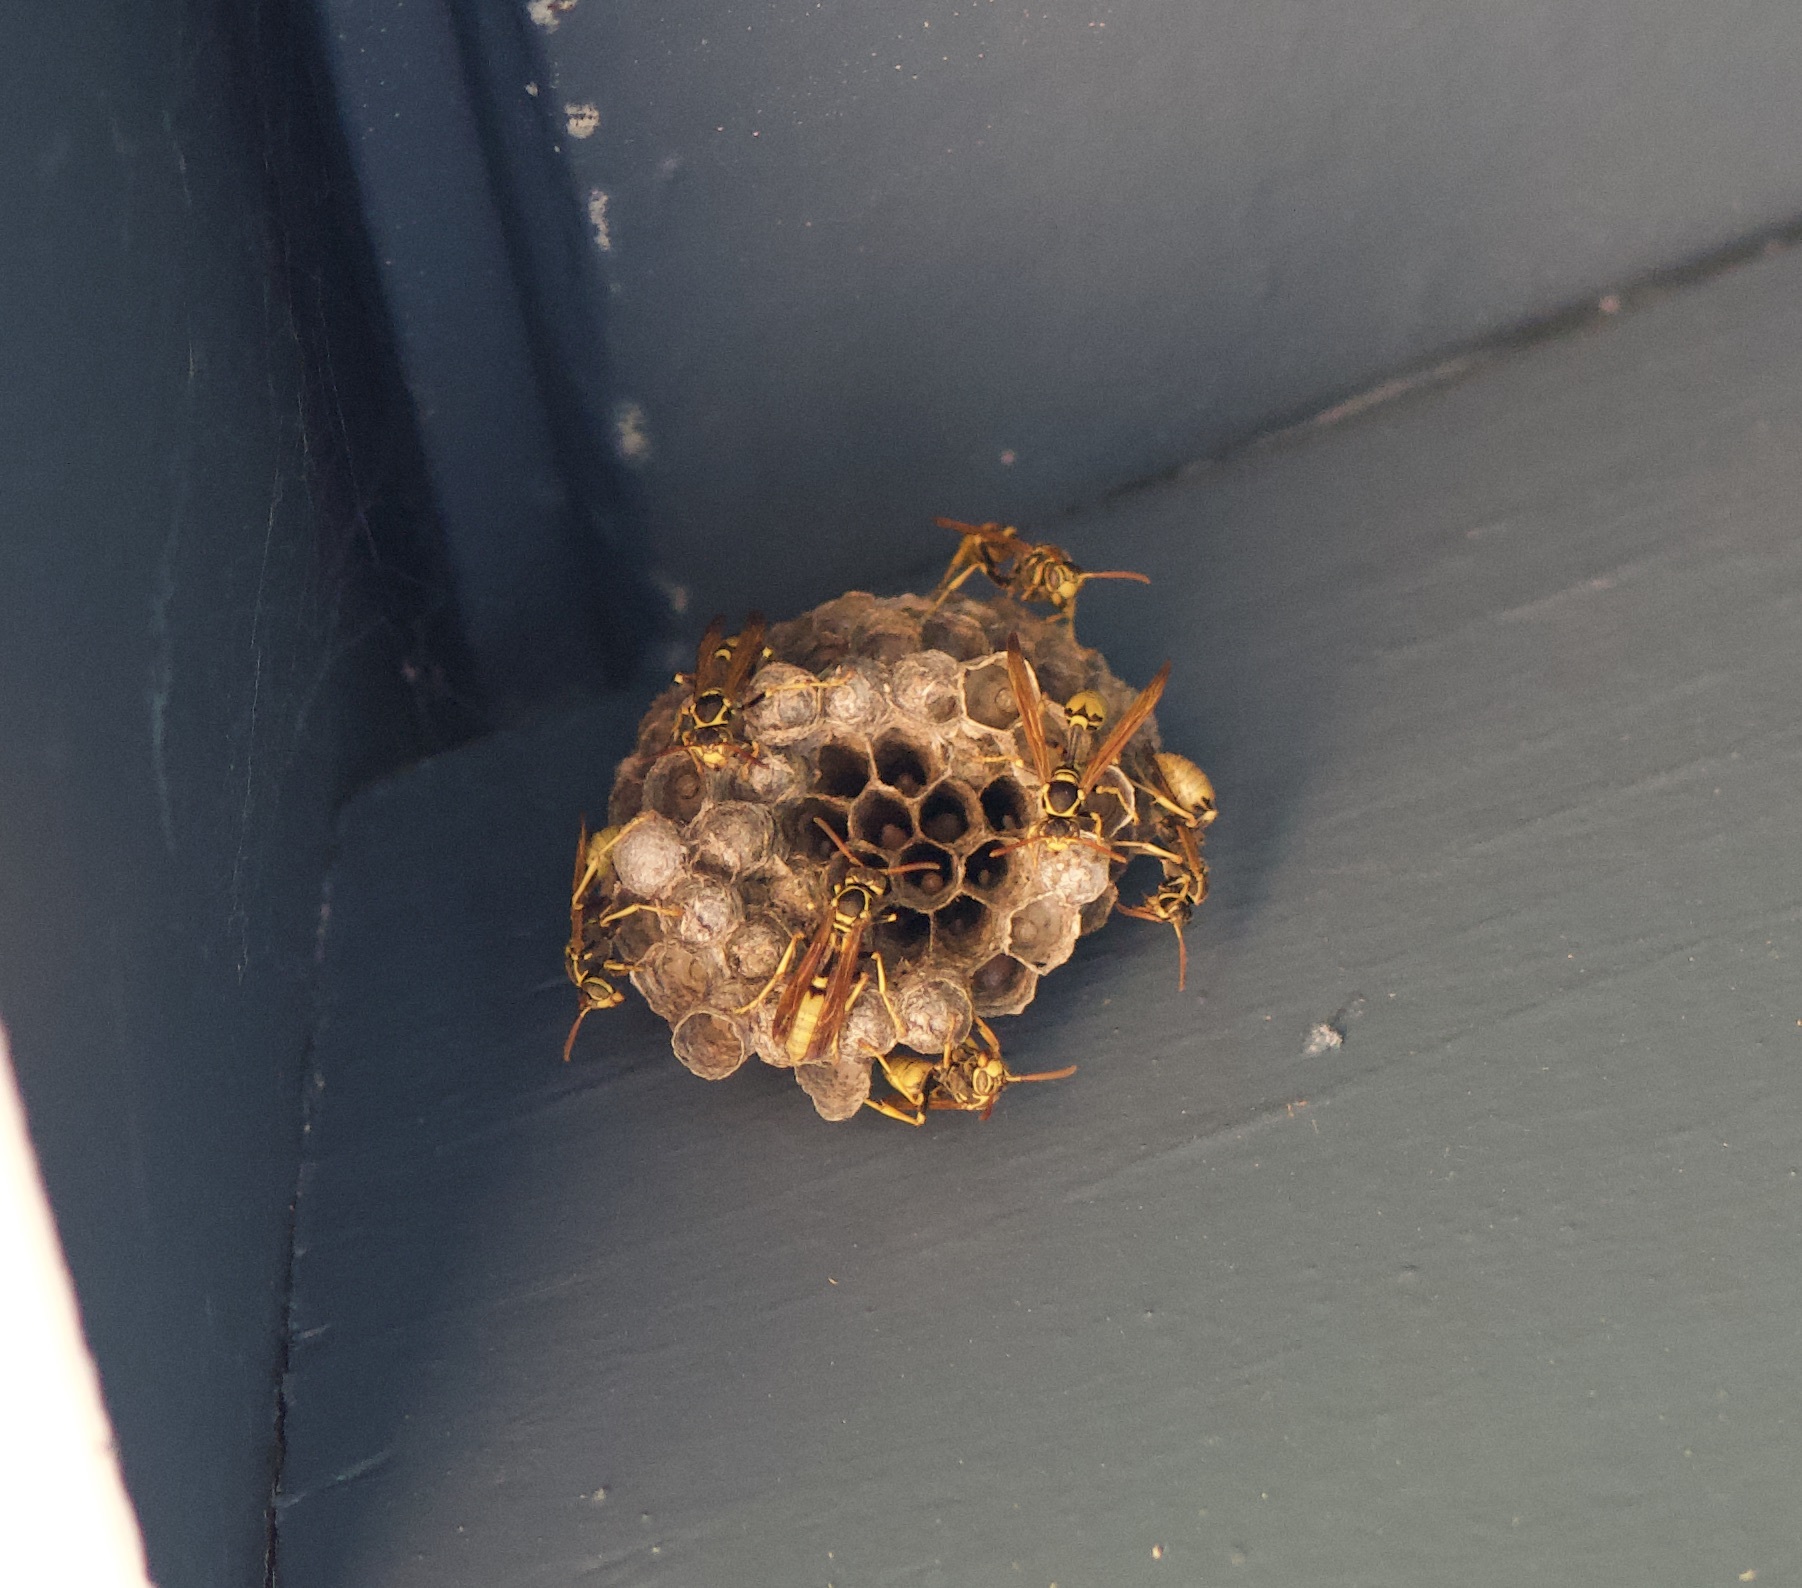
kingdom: Animalia
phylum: Arthropoda
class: Insecta
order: Hymenoptera
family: Vespidae
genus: Mischocyttarus
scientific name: Mischocyttarus flavitarsis
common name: Wasp
